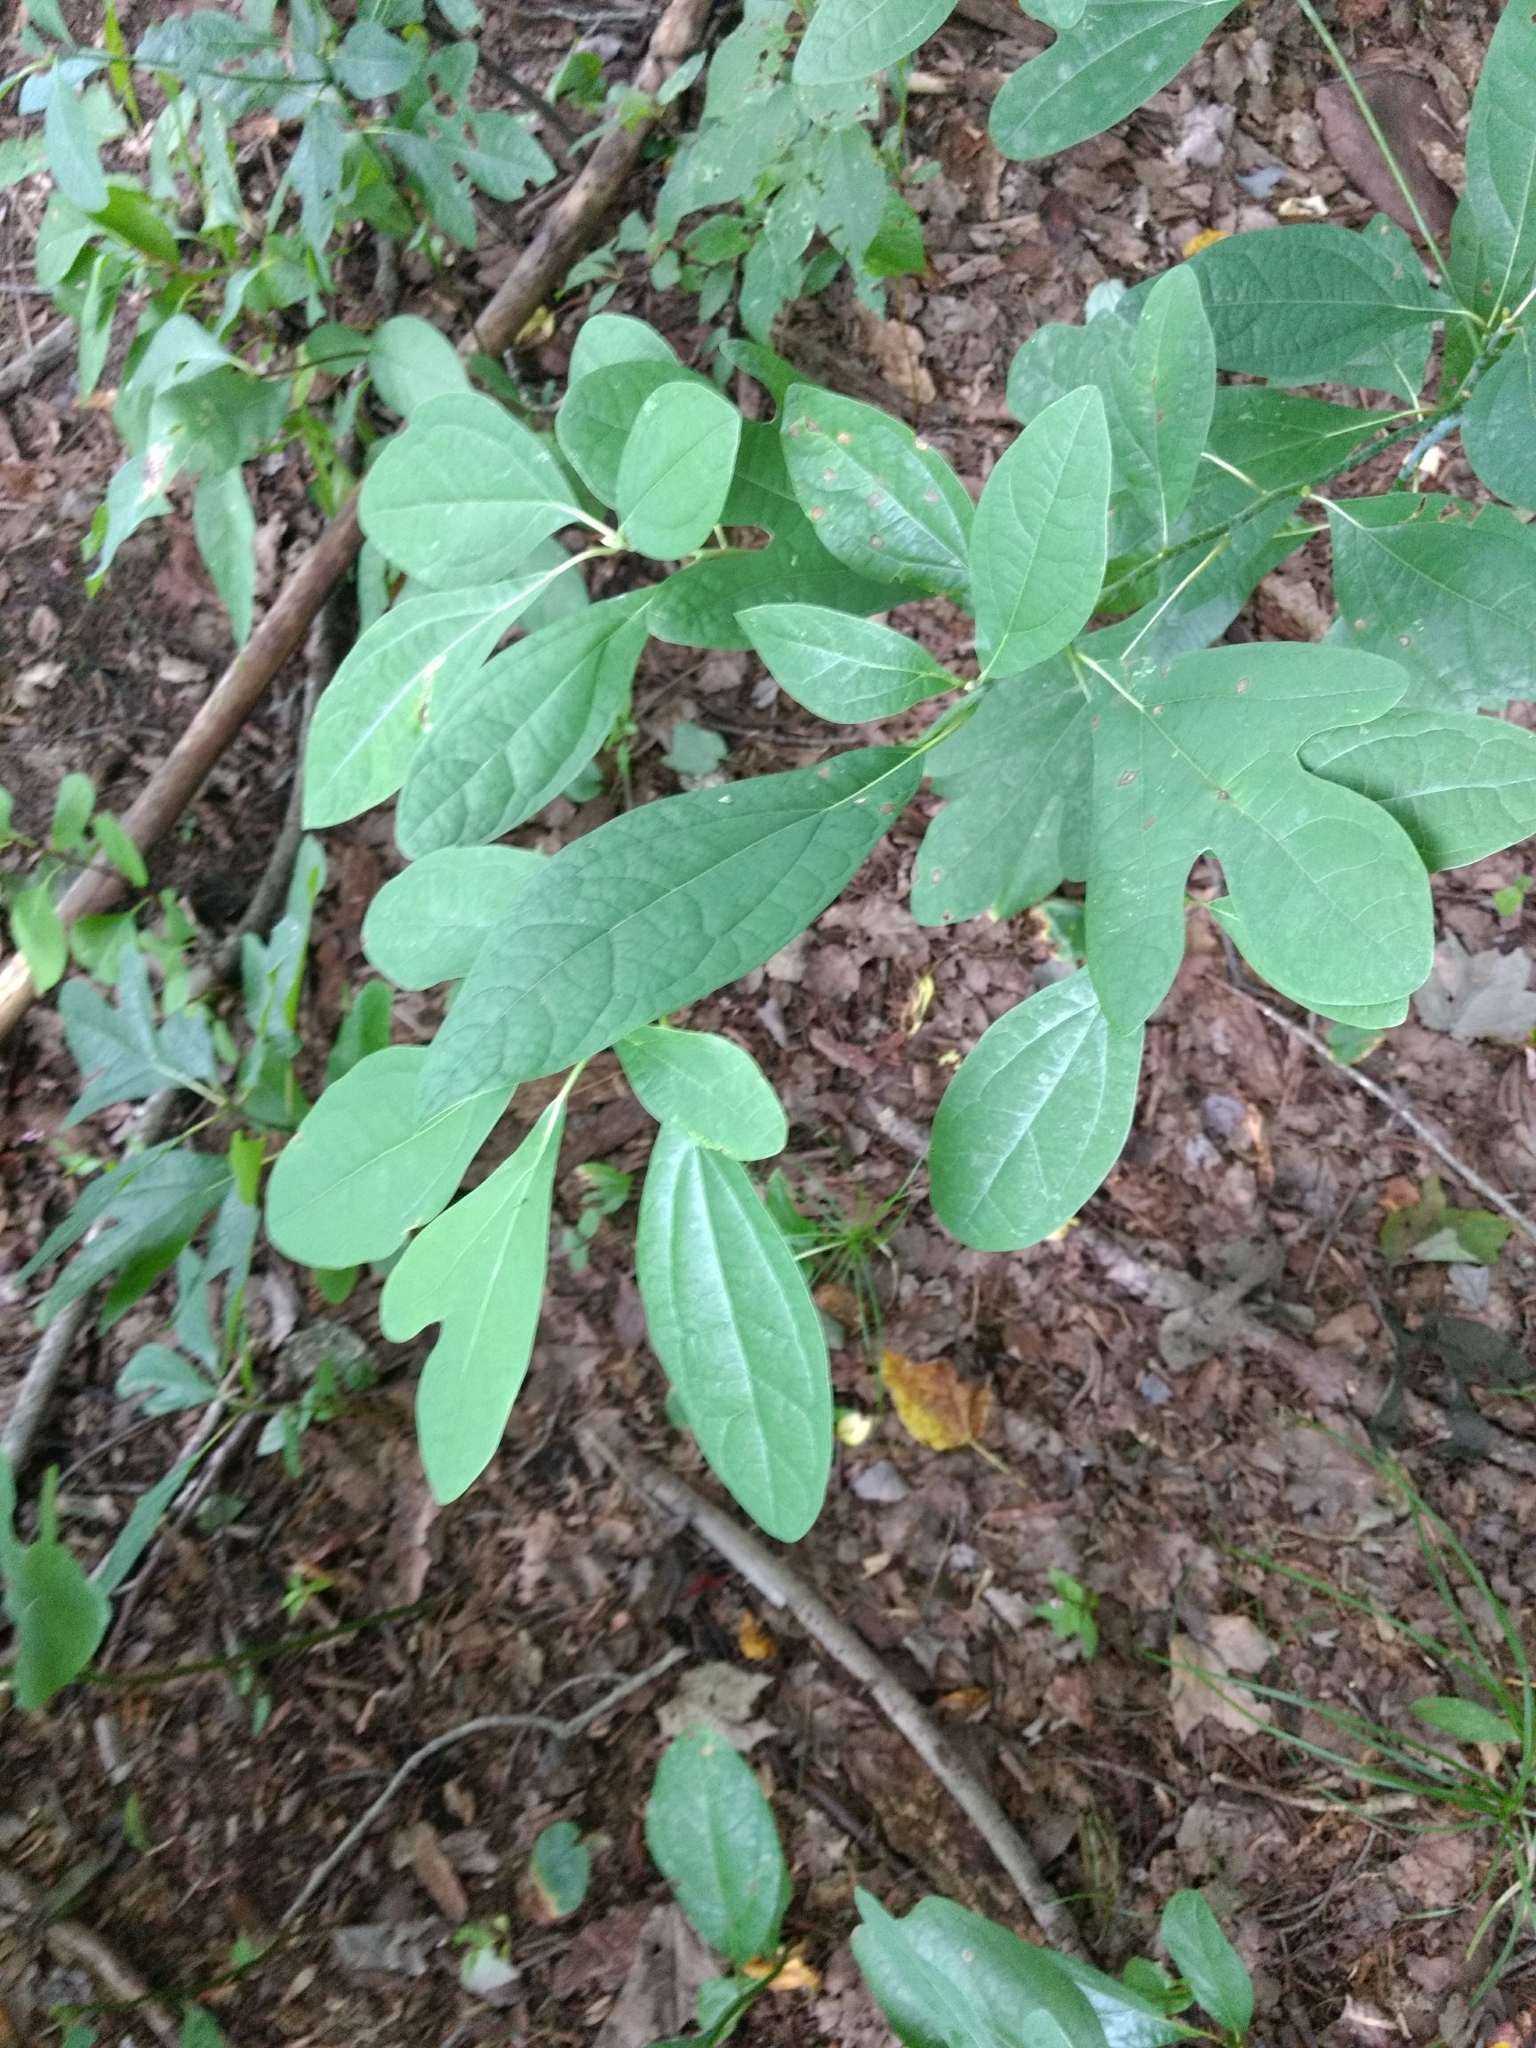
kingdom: Plantae
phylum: Tracheophyta
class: Magnoliopsida
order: Laurales
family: Lauraceae
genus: Sassafras
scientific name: Sassafras albidum
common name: Sassafras
